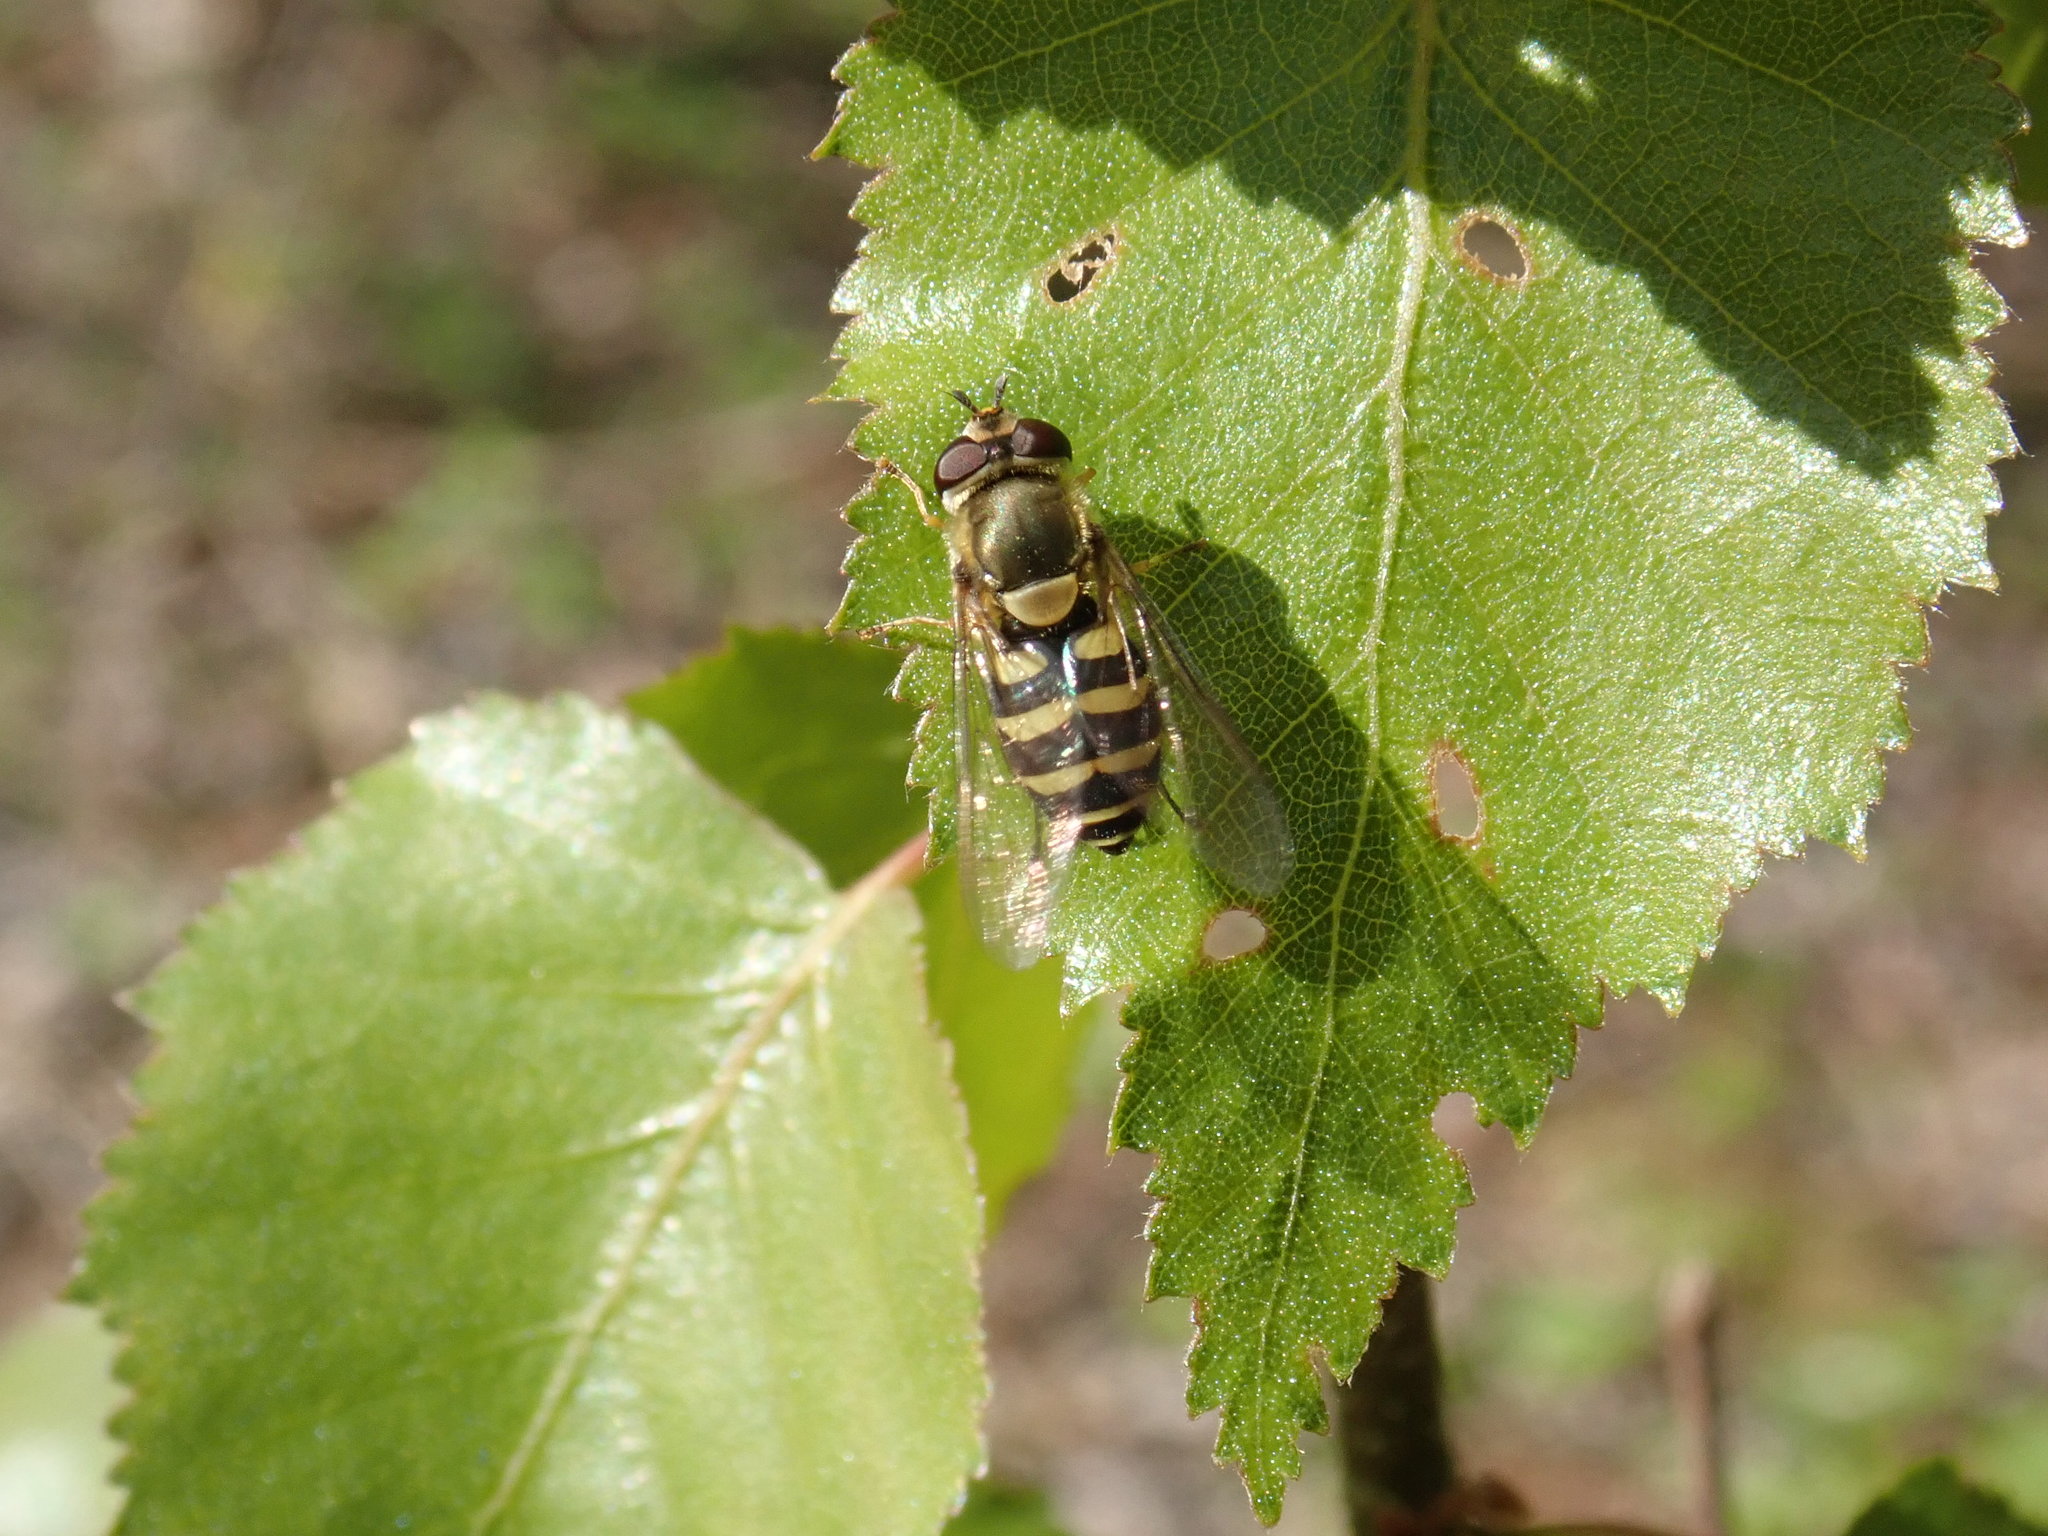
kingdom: Animalia
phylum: Arthropoda
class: Insecta
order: Diptera
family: Syrphidae
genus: Syrphus
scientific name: Syrphus
